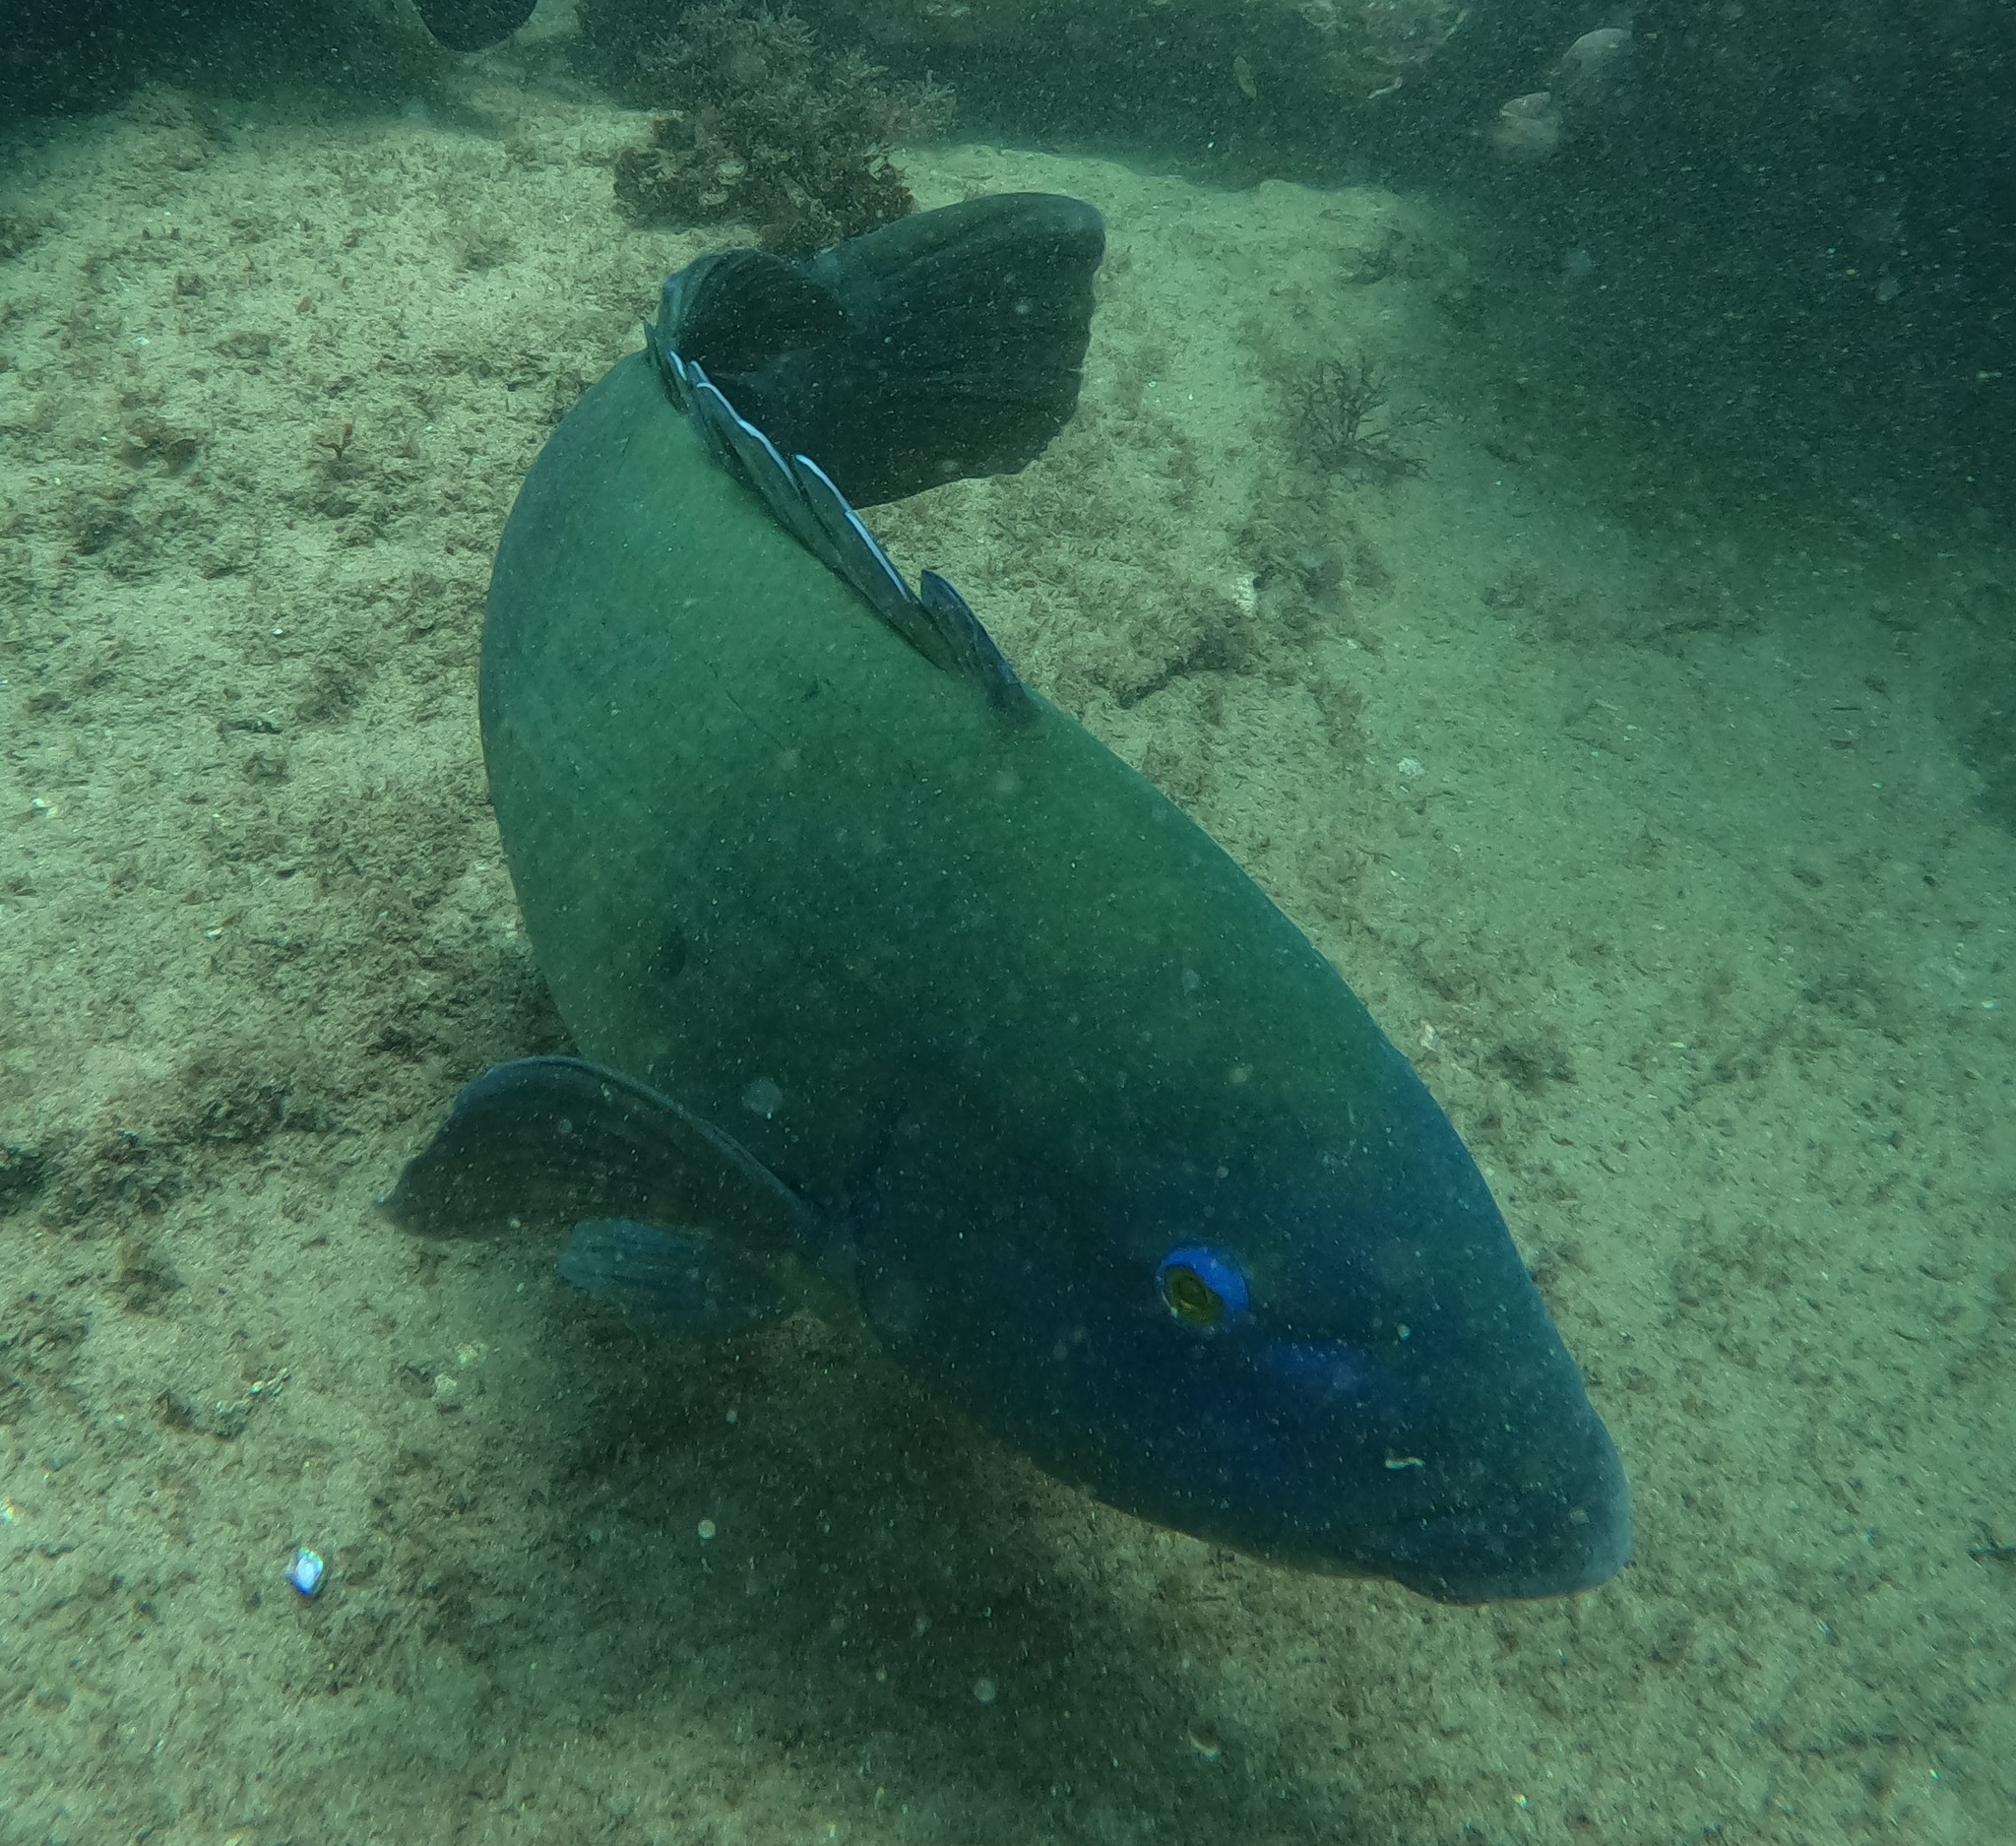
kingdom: Animalia
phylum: Chordata
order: Perciformes
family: Labridae
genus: Achoerodus
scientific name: Achoerodus viridis
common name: Brown groper
